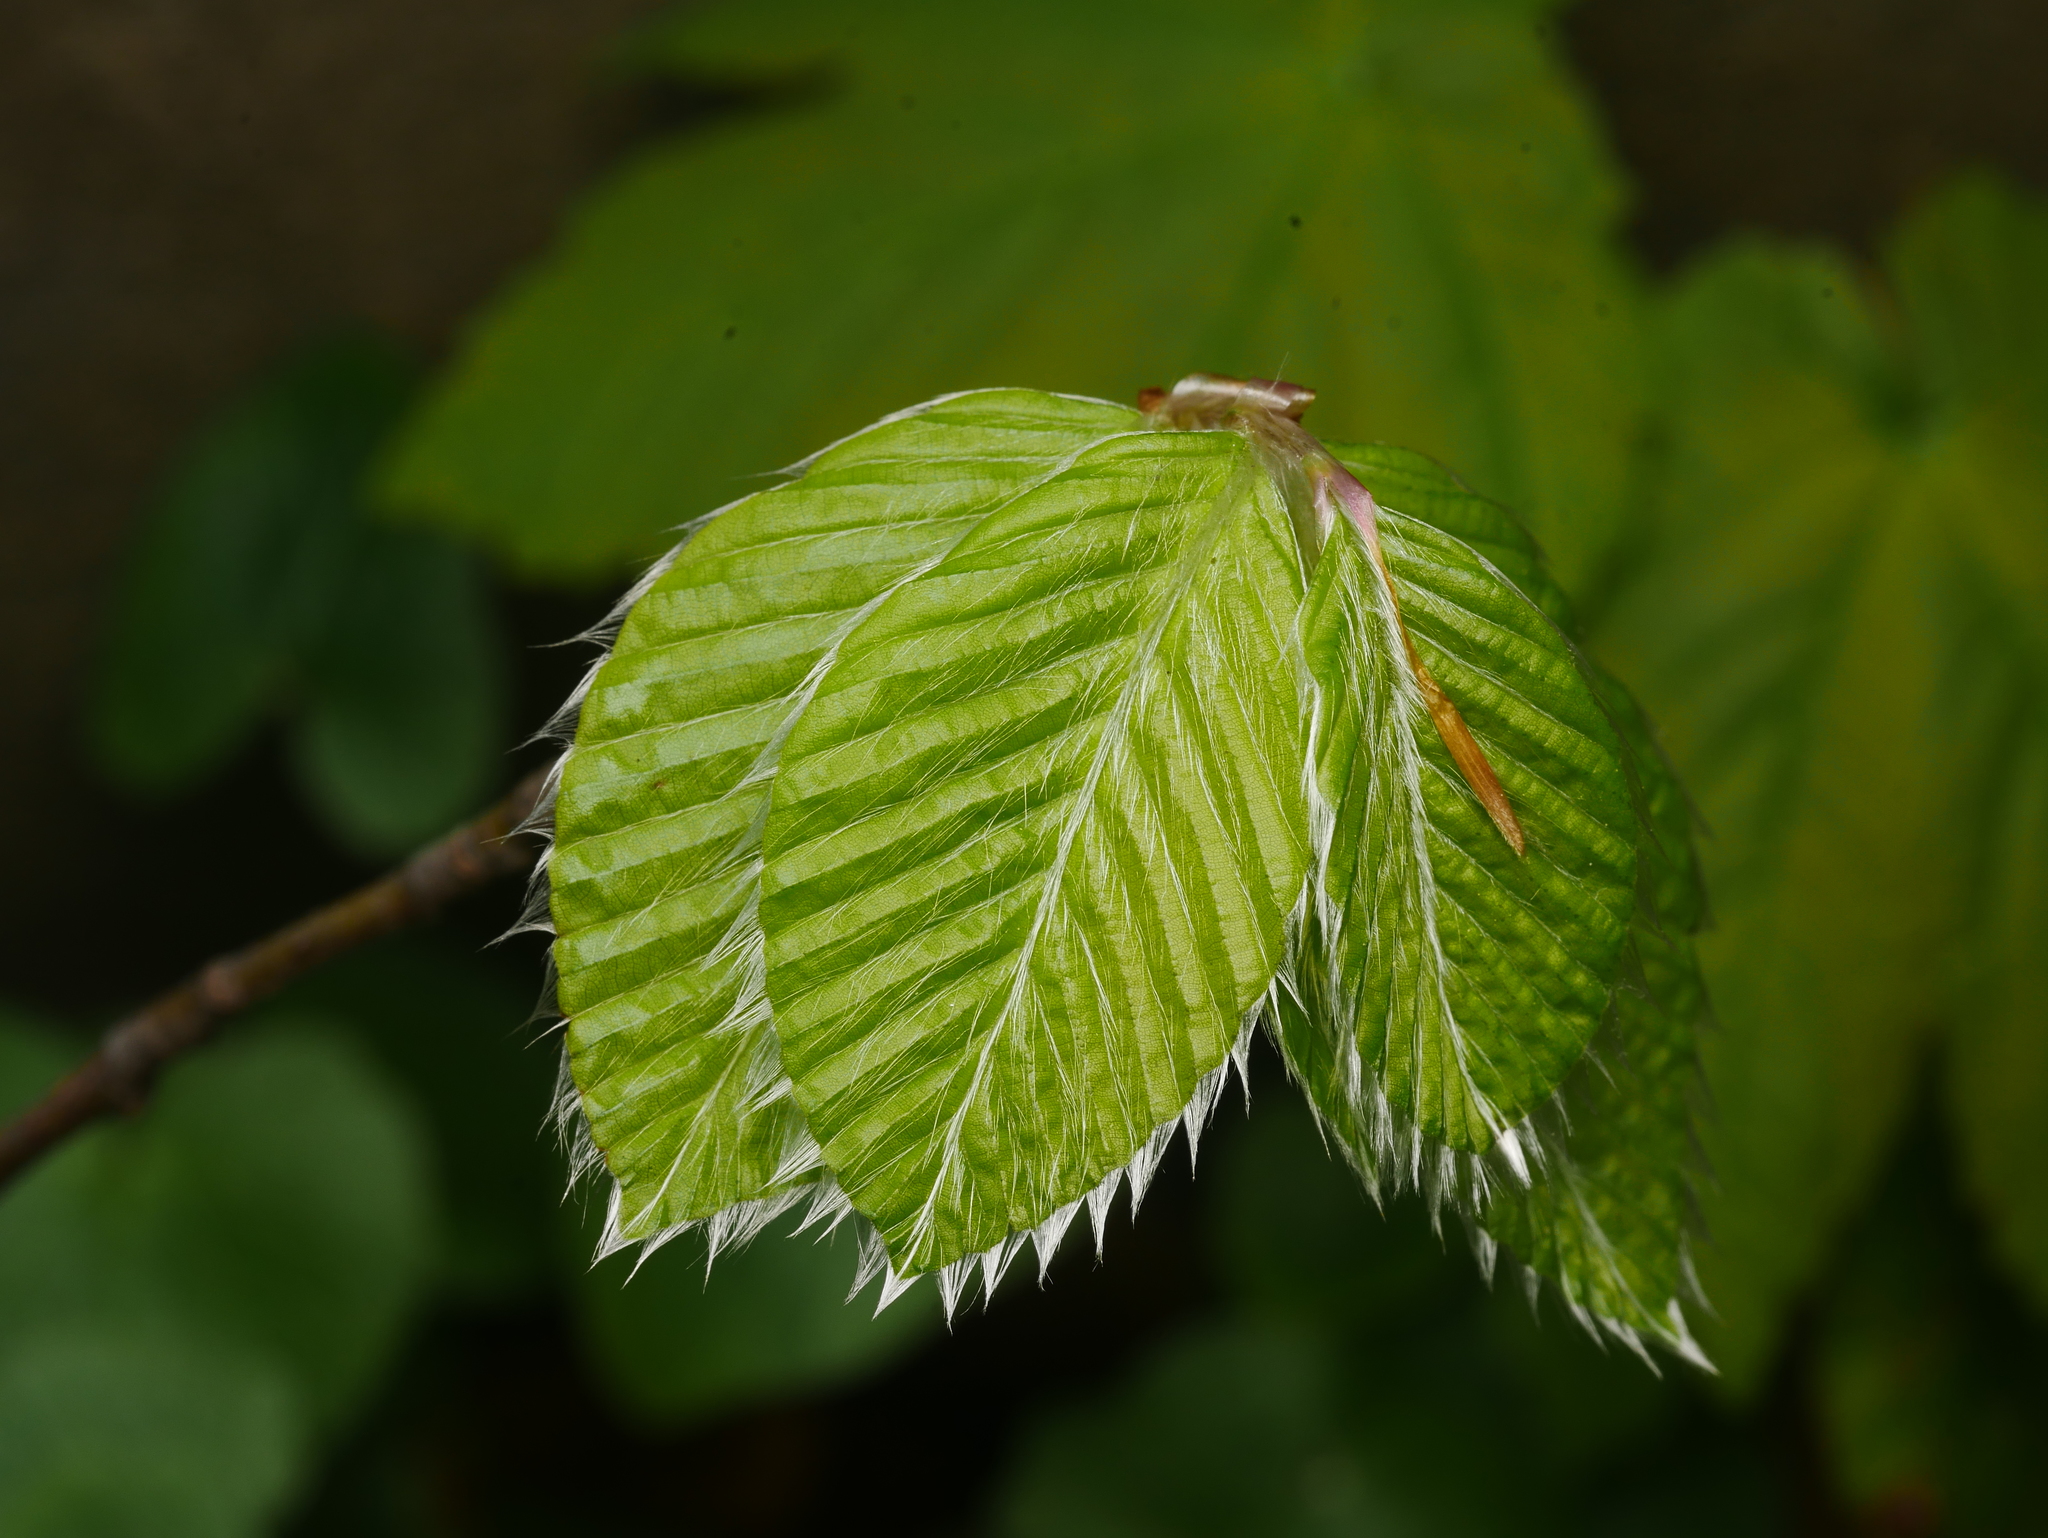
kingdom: Plantae
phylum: Tracheophyta
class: Magnoliopsida
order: Fagales
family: Fagaceae
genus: Fagus
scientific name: Fagus sylvatica
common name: Beech
